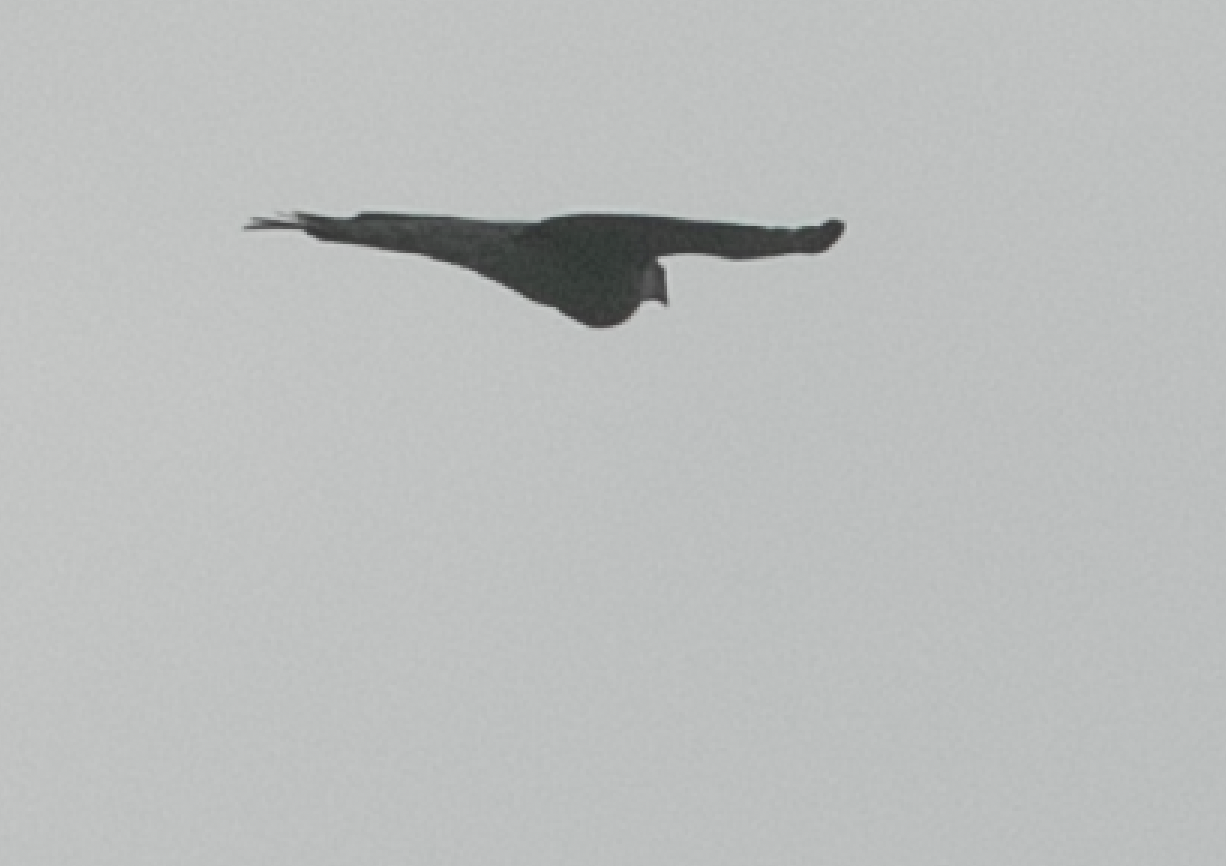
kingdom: Animalia
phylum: Chordata
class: Aves
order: Accipitriformes
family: Accipitridae
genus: Accipiter
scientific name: Accipiter nisus
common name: Eurasian sparrowhawk
